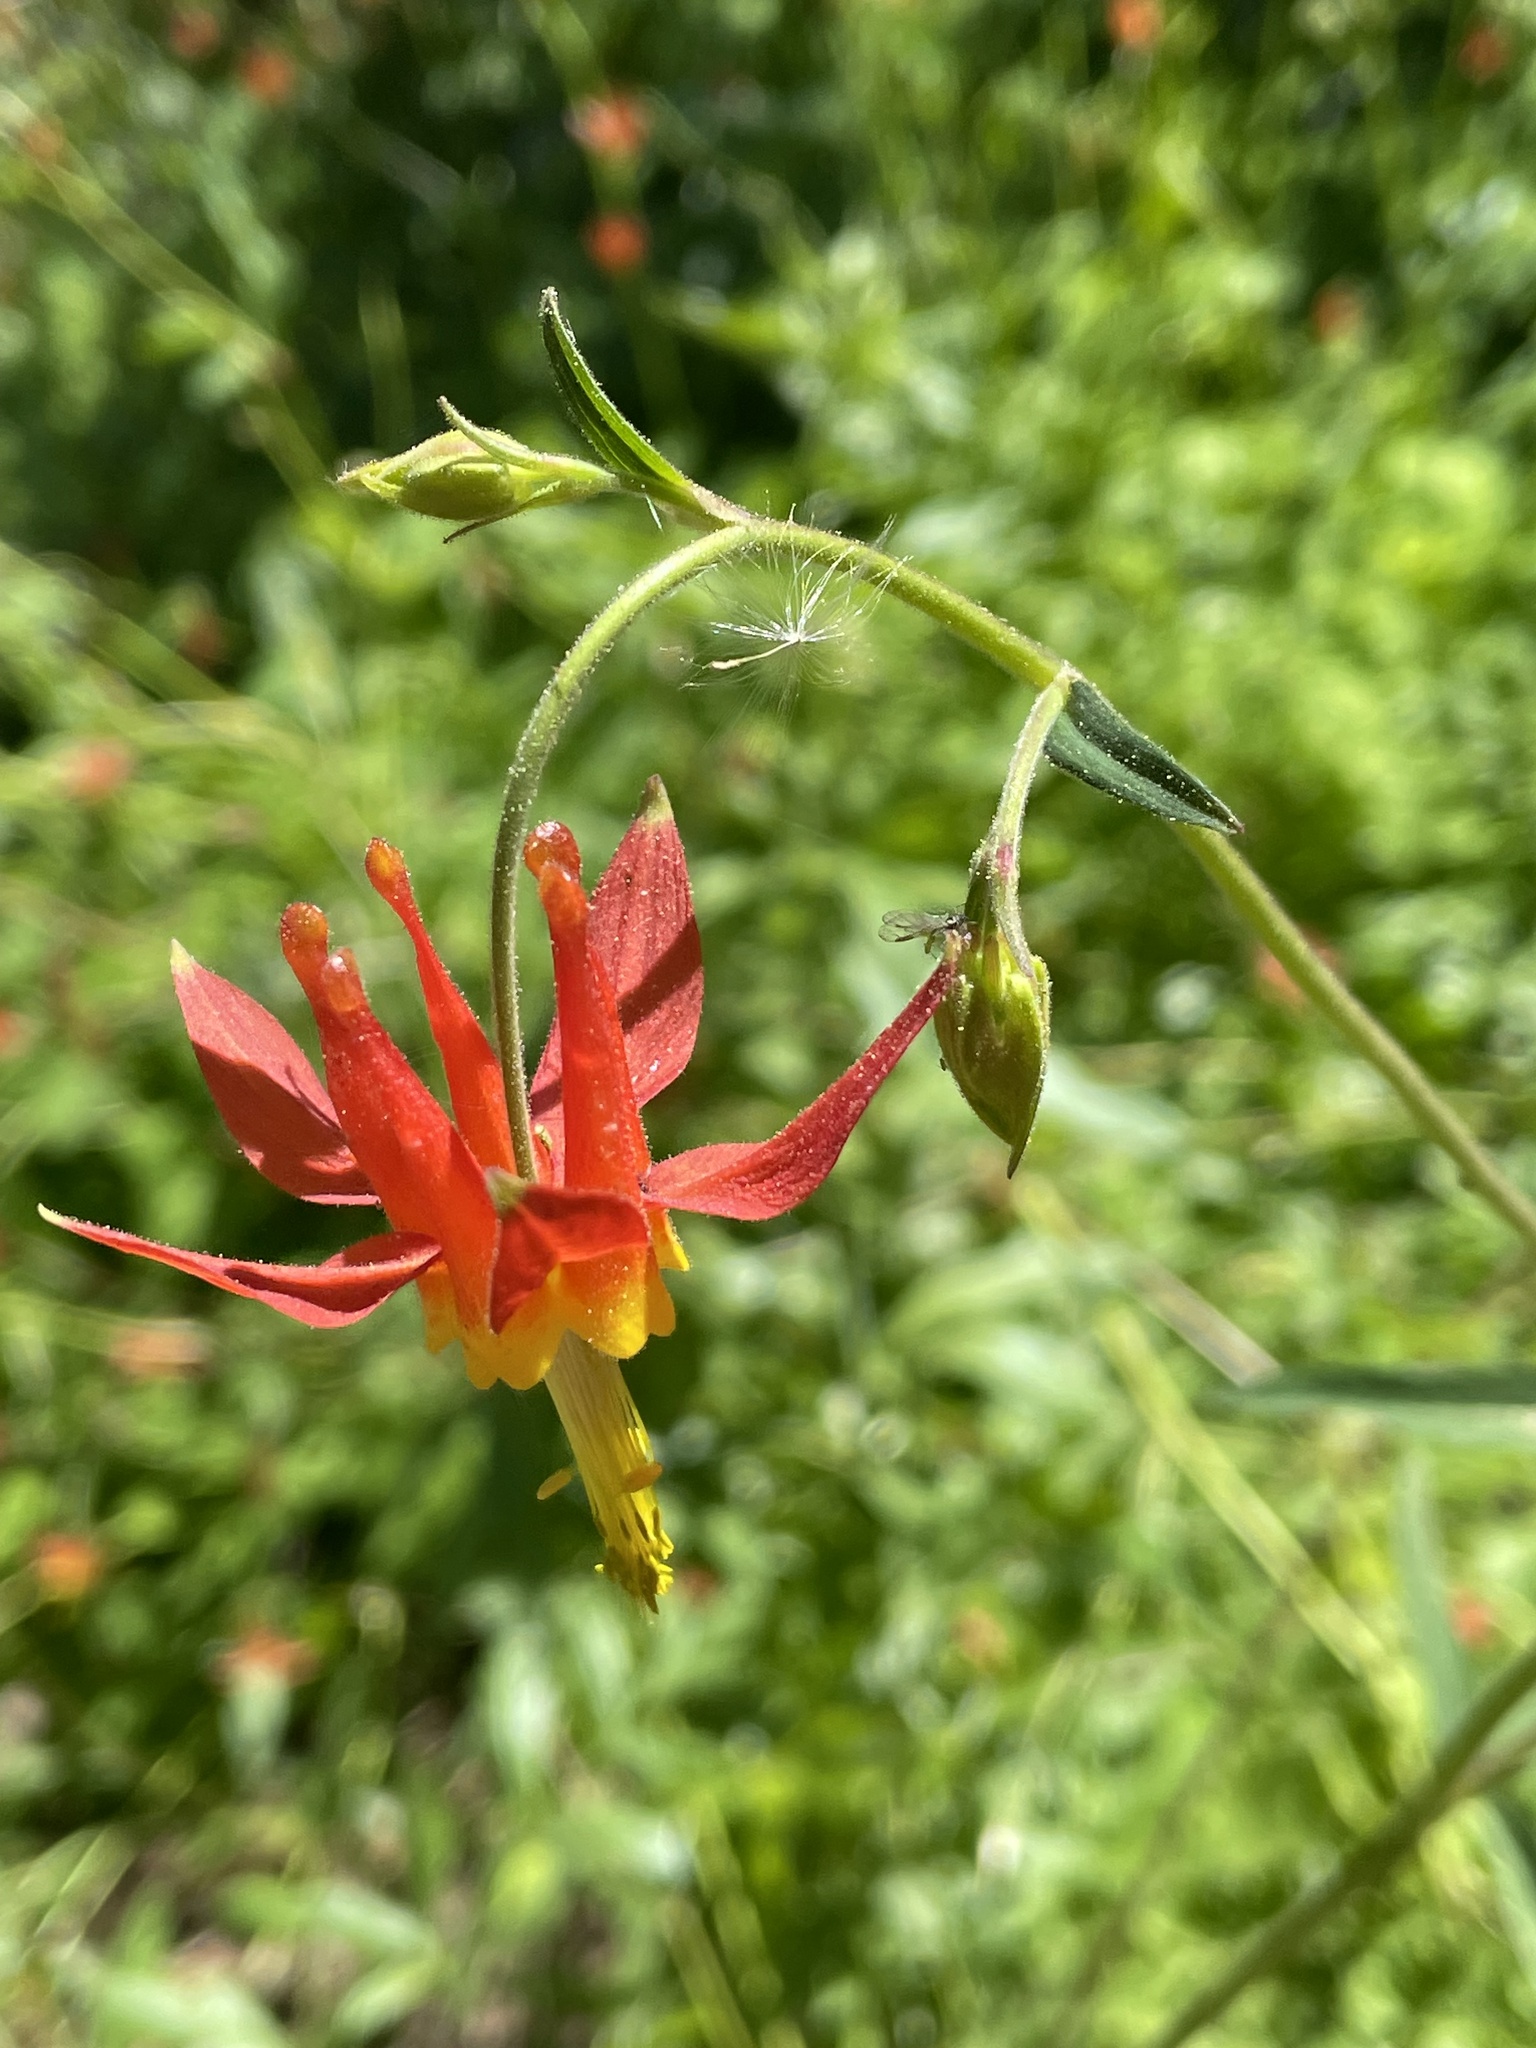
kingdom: Plantae
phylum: Tracheophyta
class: Magnoliopsida
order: Ranunculales
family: Ranunculaceae
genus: Aquilegia
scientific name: Aquilegia formosa
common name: Sitka columbine
